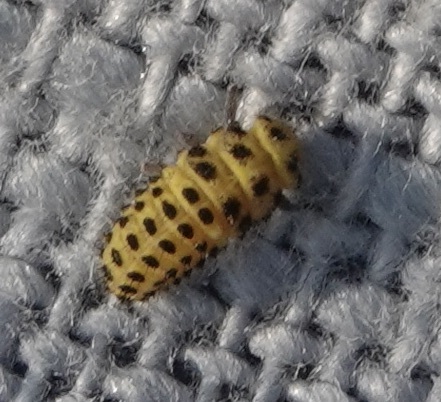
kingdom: Animalia
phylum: Arthropoda
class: Insecta
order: Coleoptera
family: Coccinellidae
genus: Psyllobora
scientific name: Psyllobora vigintiduopunctata
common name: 22-spot ladybird
